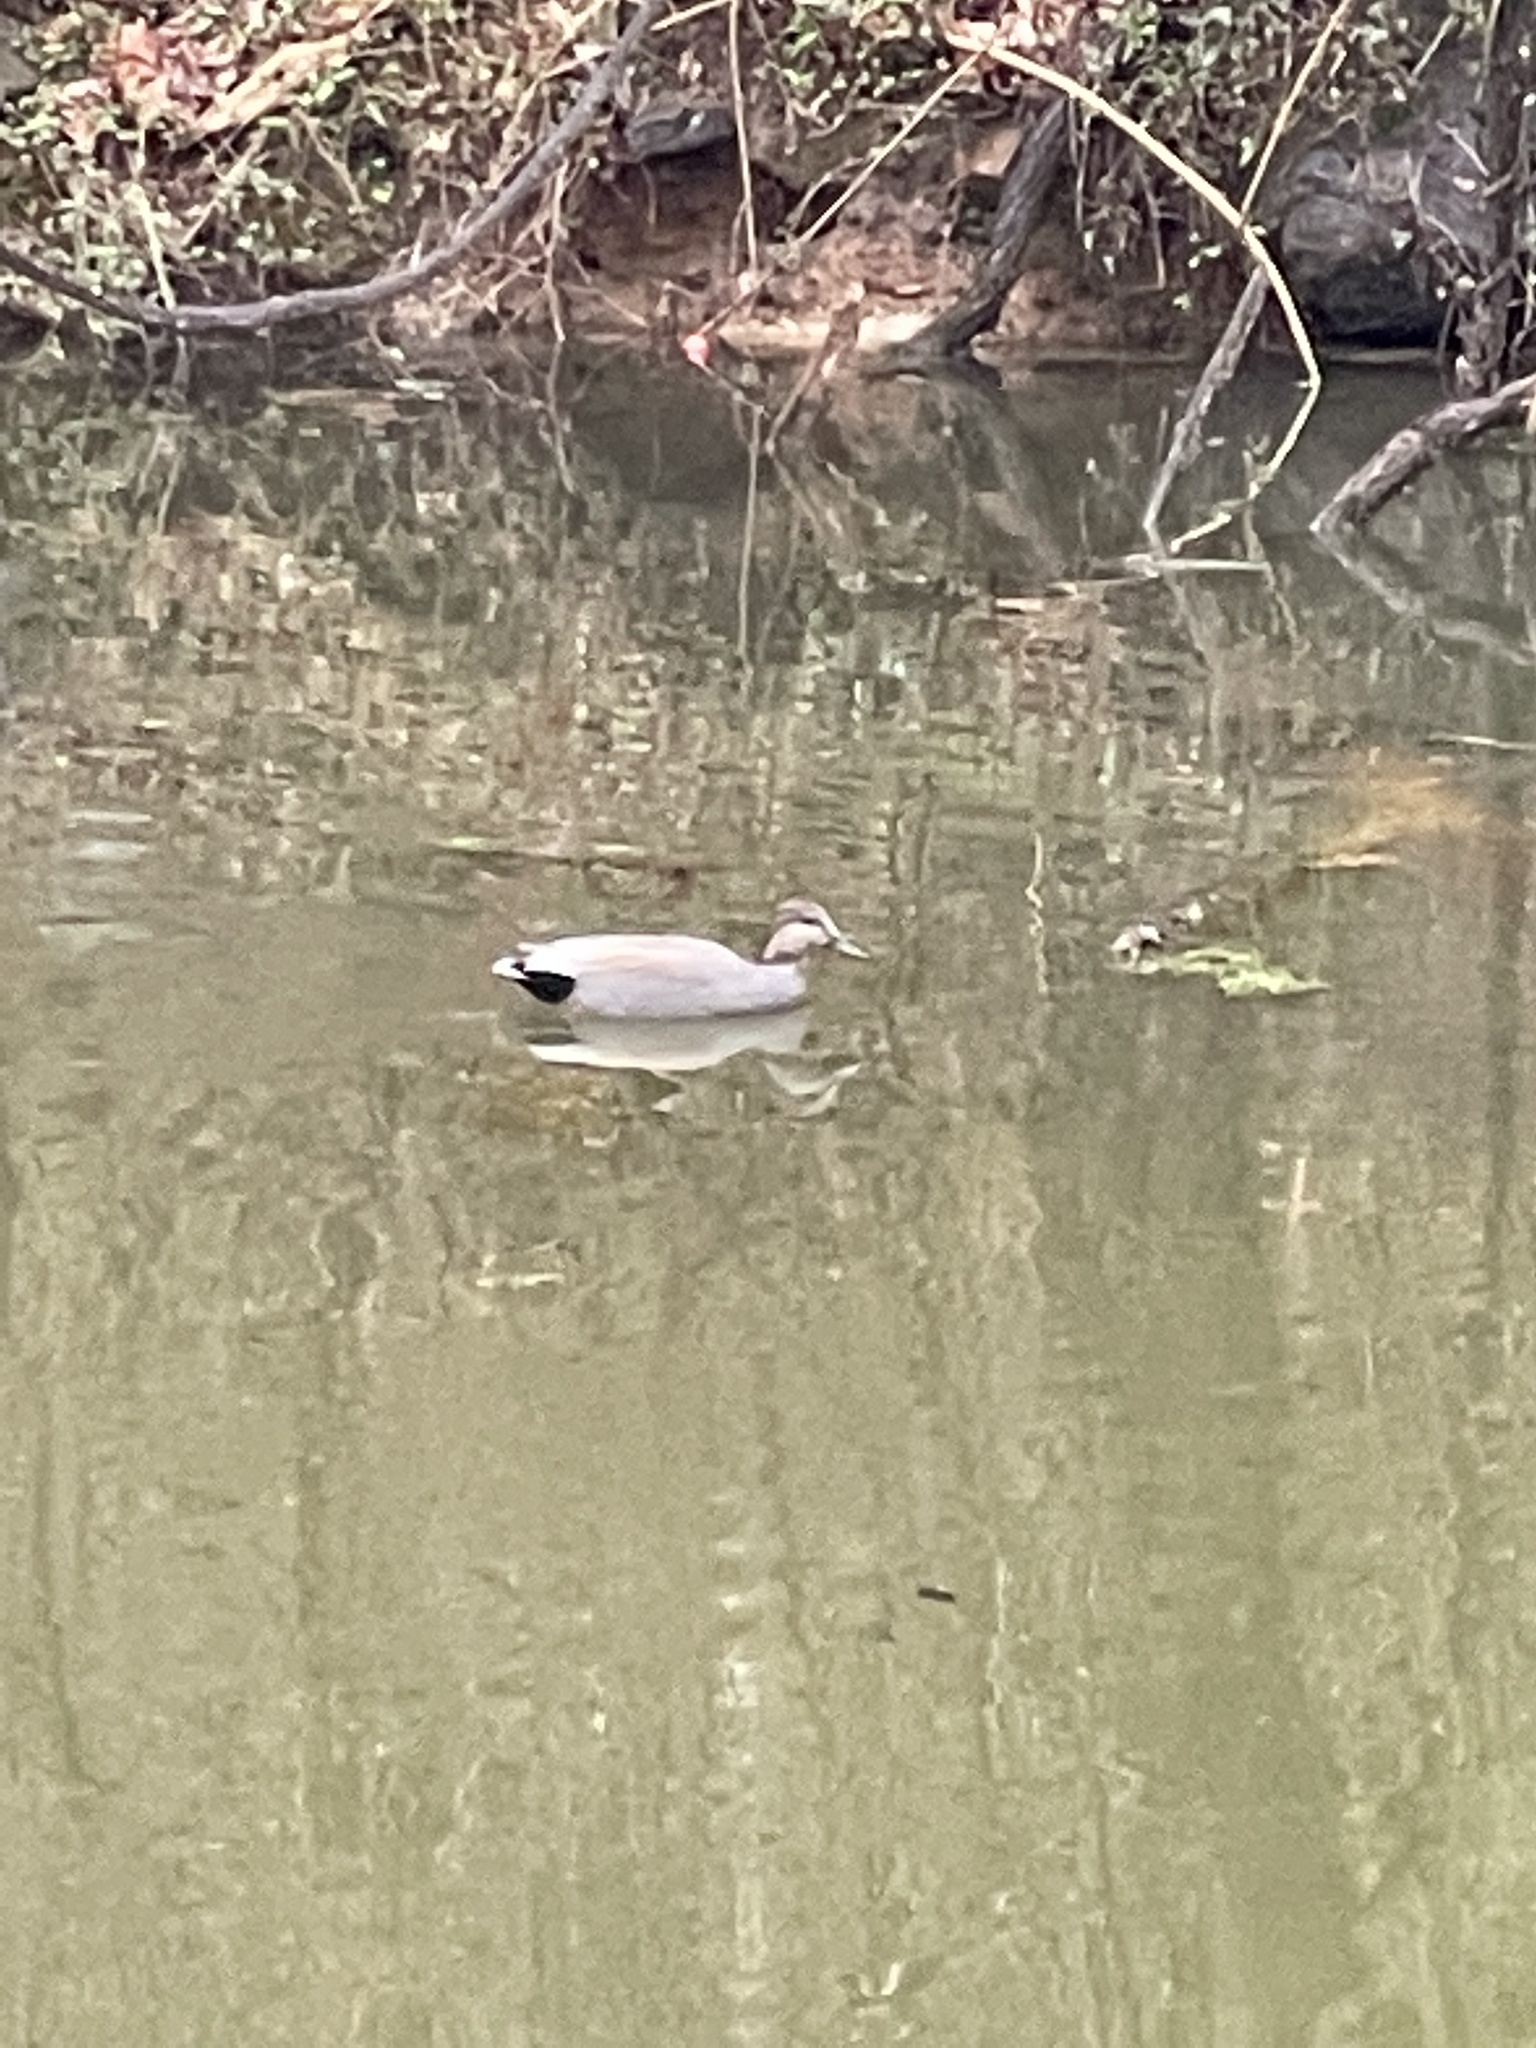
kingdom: Animalia
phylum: Chordata
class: Aves
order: Anseriformes
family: Anatidae
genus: Mareca
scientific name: Mareca strepera
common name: Gadwall
